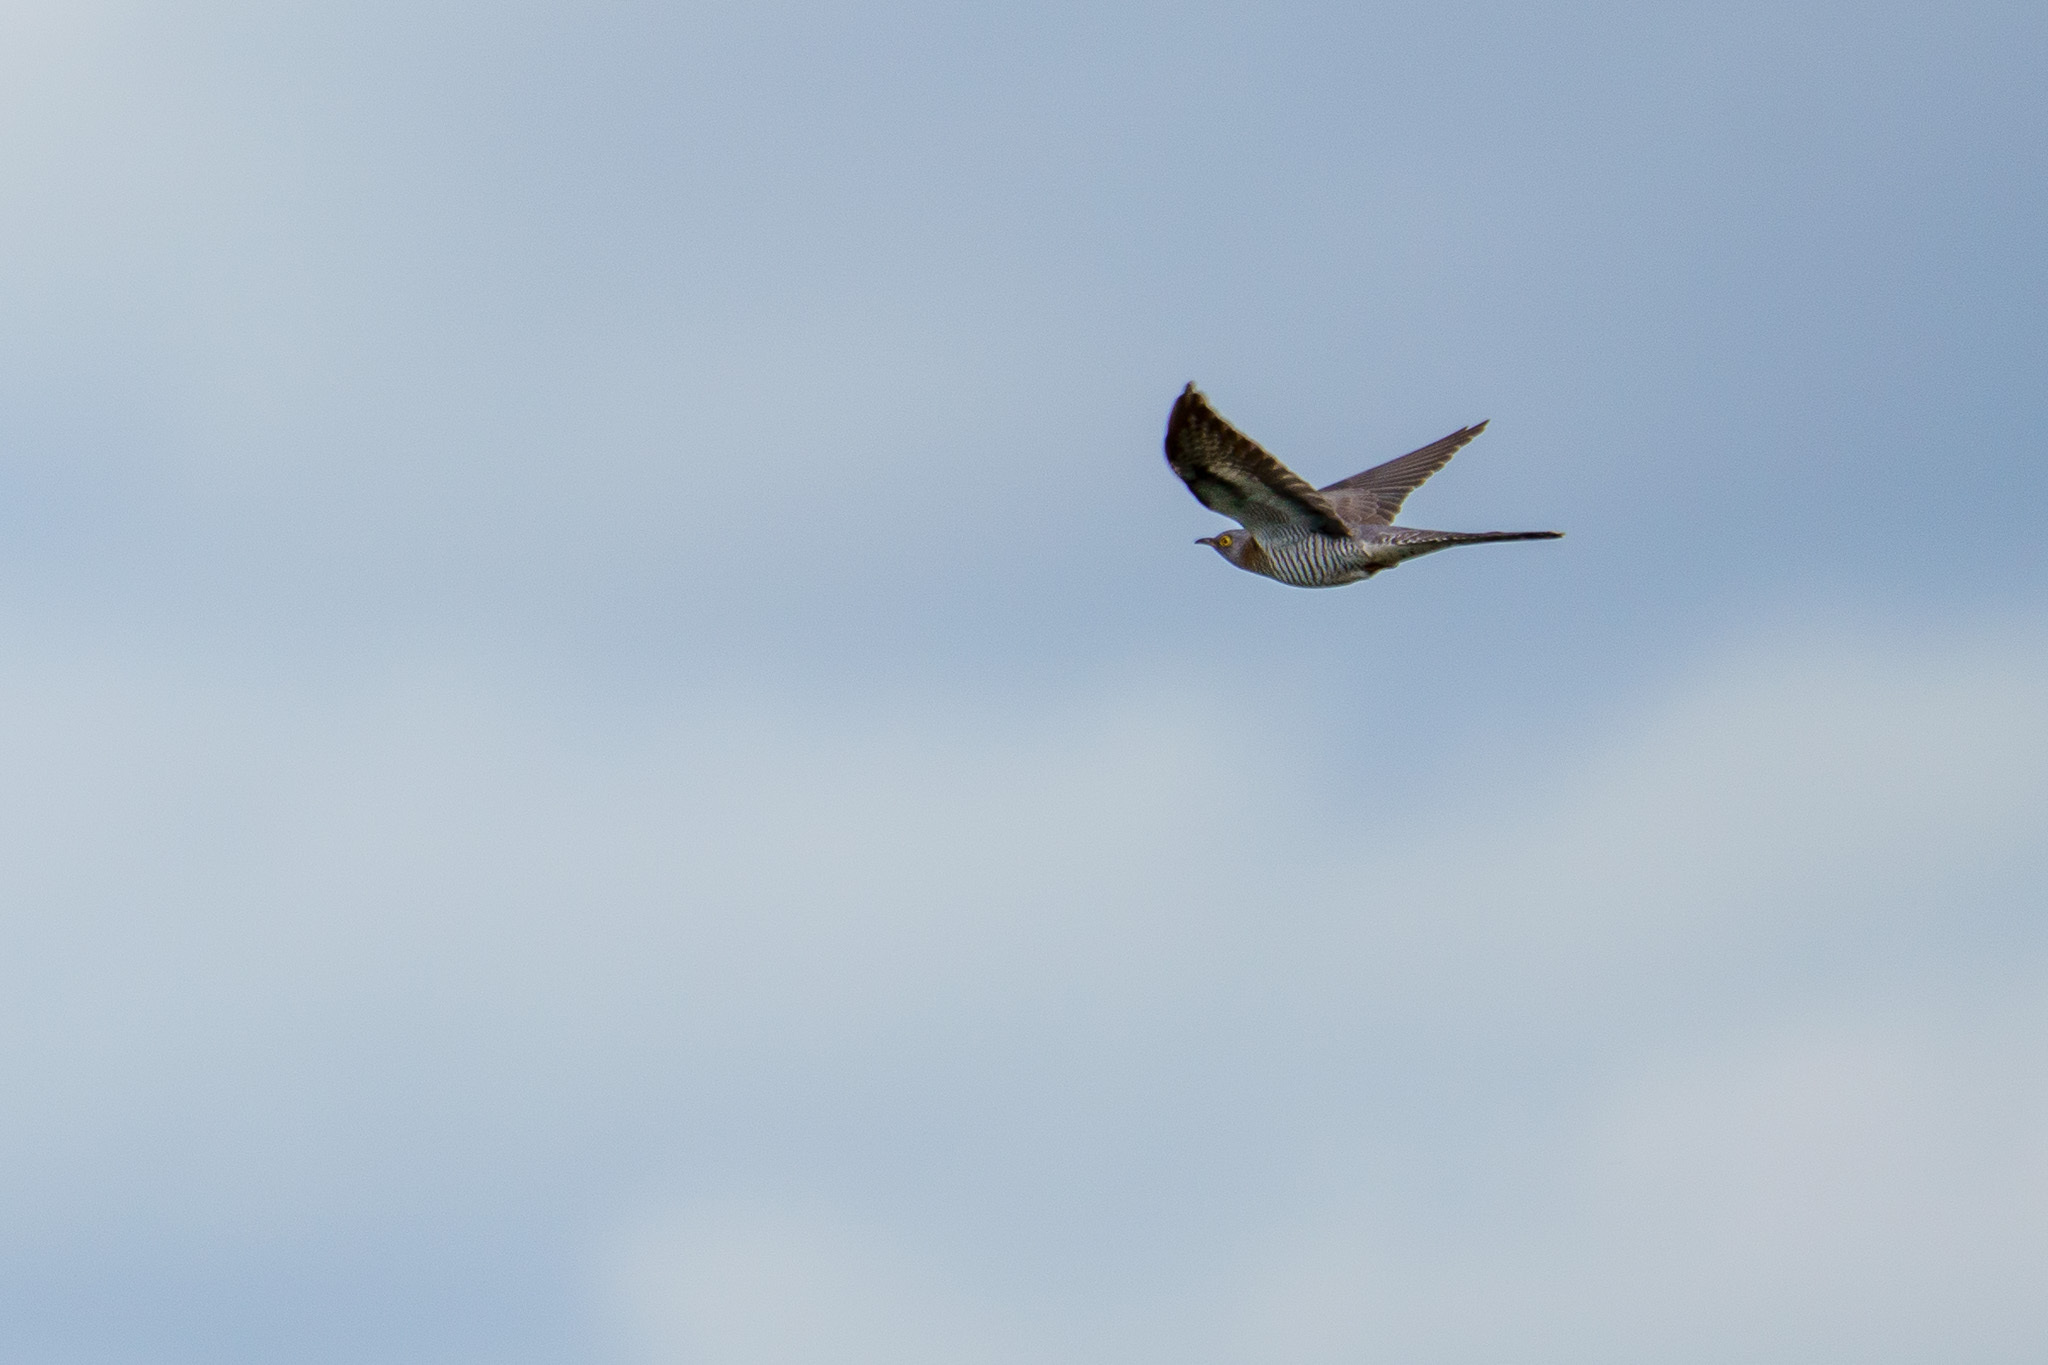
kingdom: Animalia
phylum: Chordata
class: Aves
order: Cuculiformes
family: Cuculidae
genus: Cuculus
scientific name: Cuculus canorus
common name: Common cuckoo
